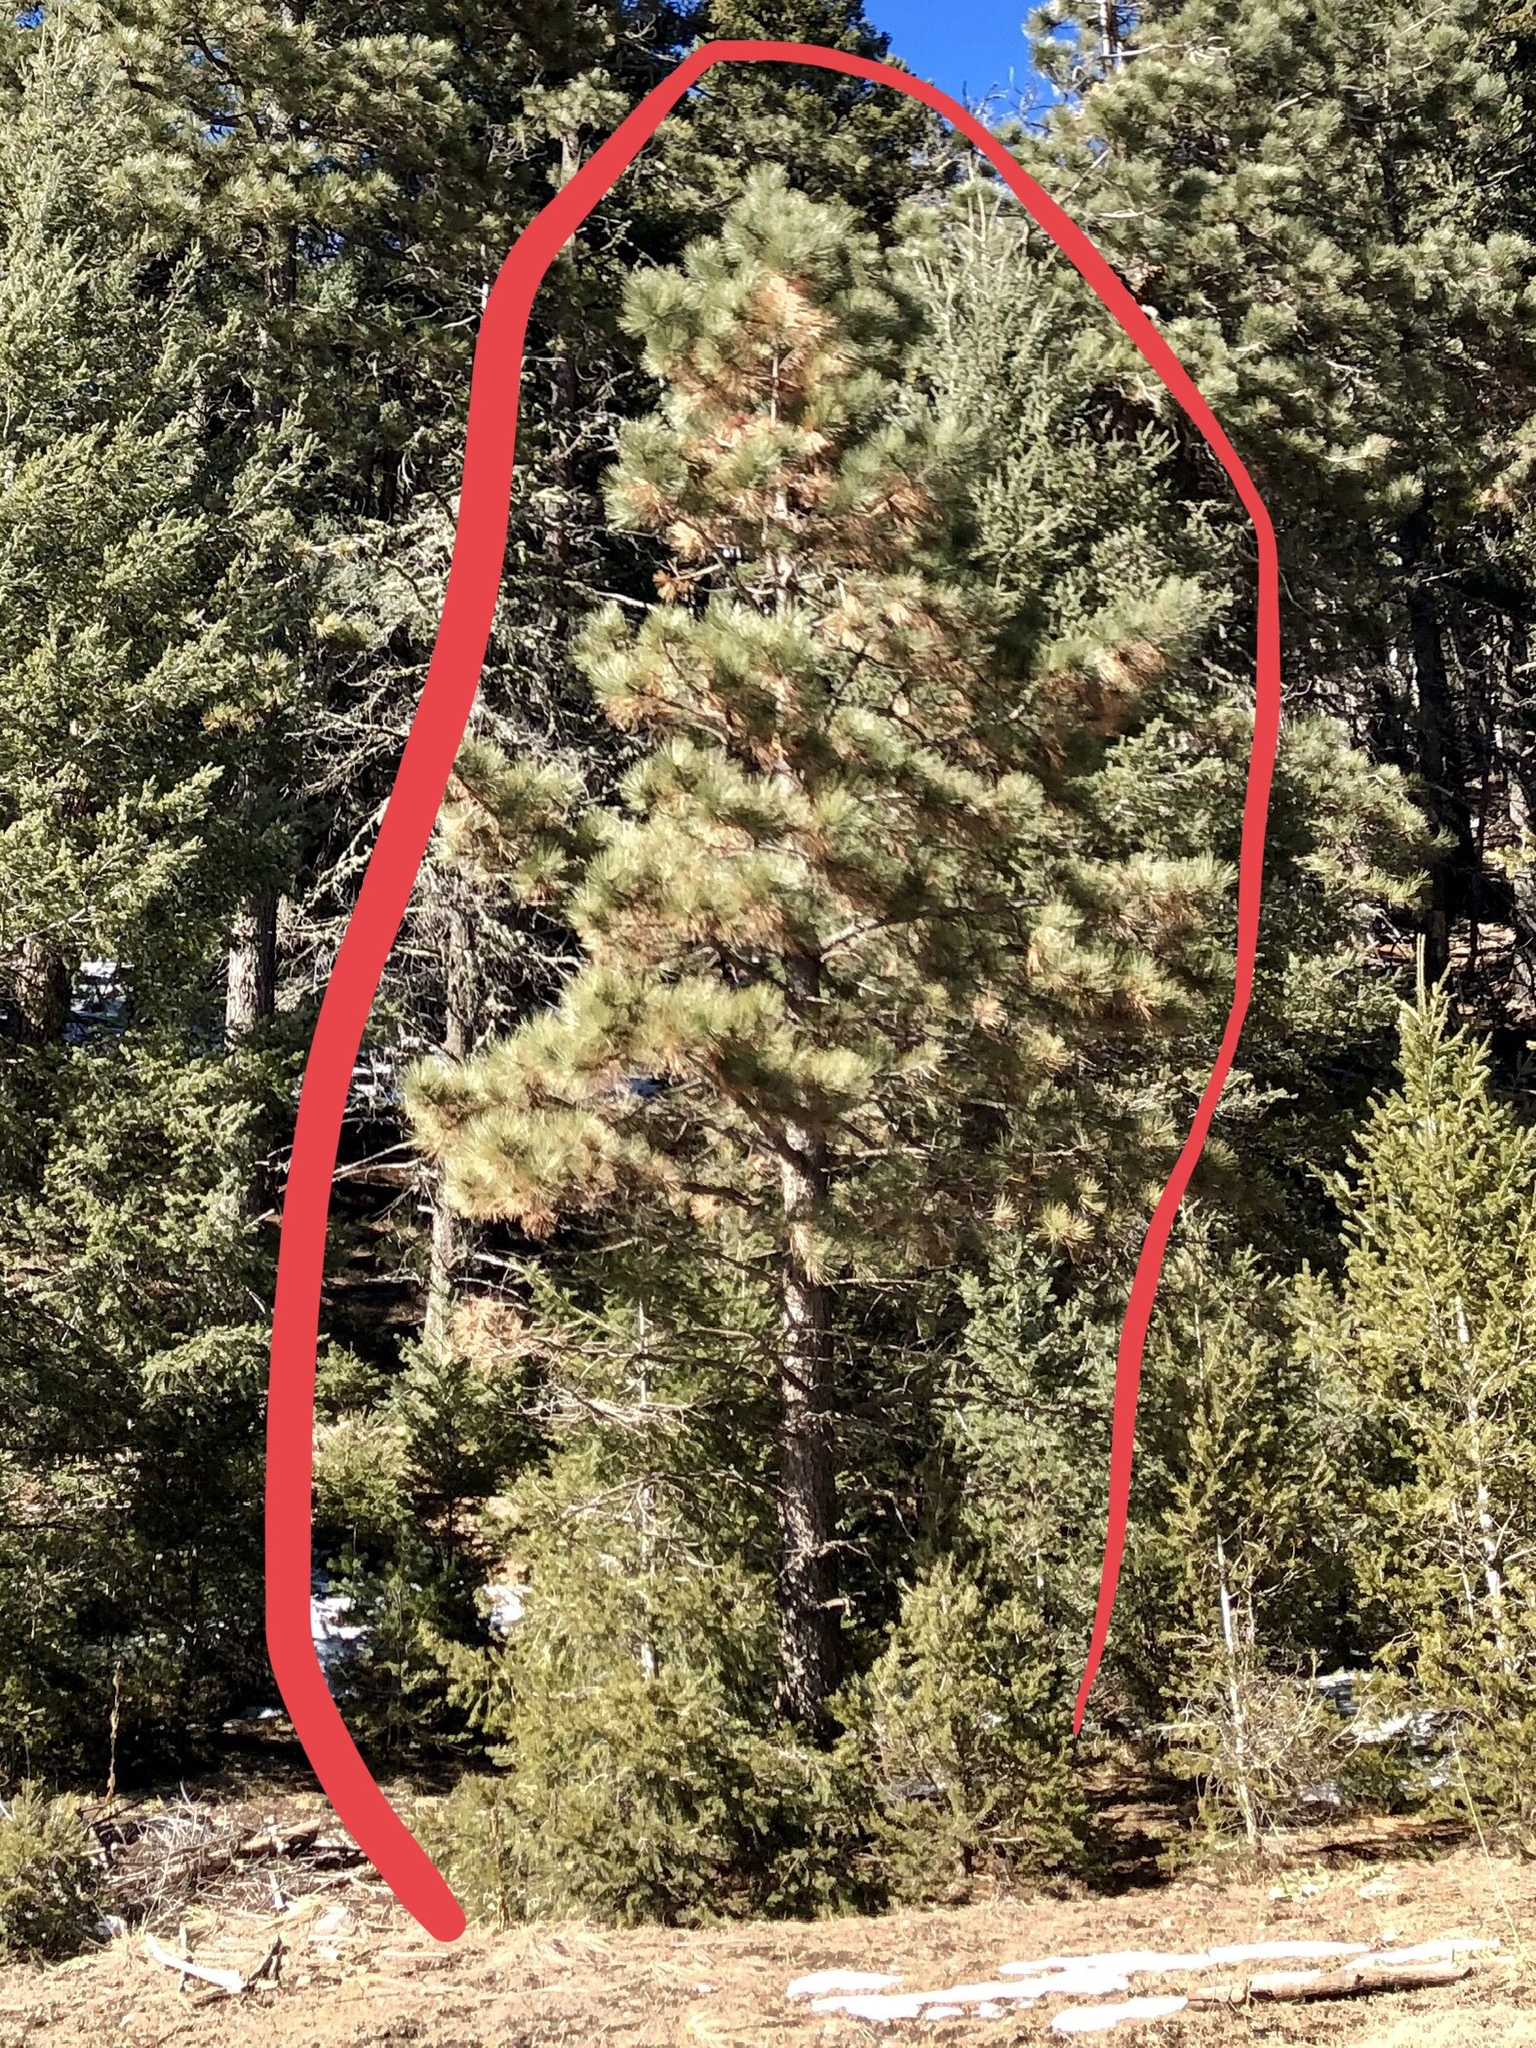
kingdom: Plantae
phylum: Tracheophyta
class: Pinopsida
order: Pinales
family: Pinaceae
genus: Pinus
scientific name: Pinus ponderosa
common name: Western yellow-pine
